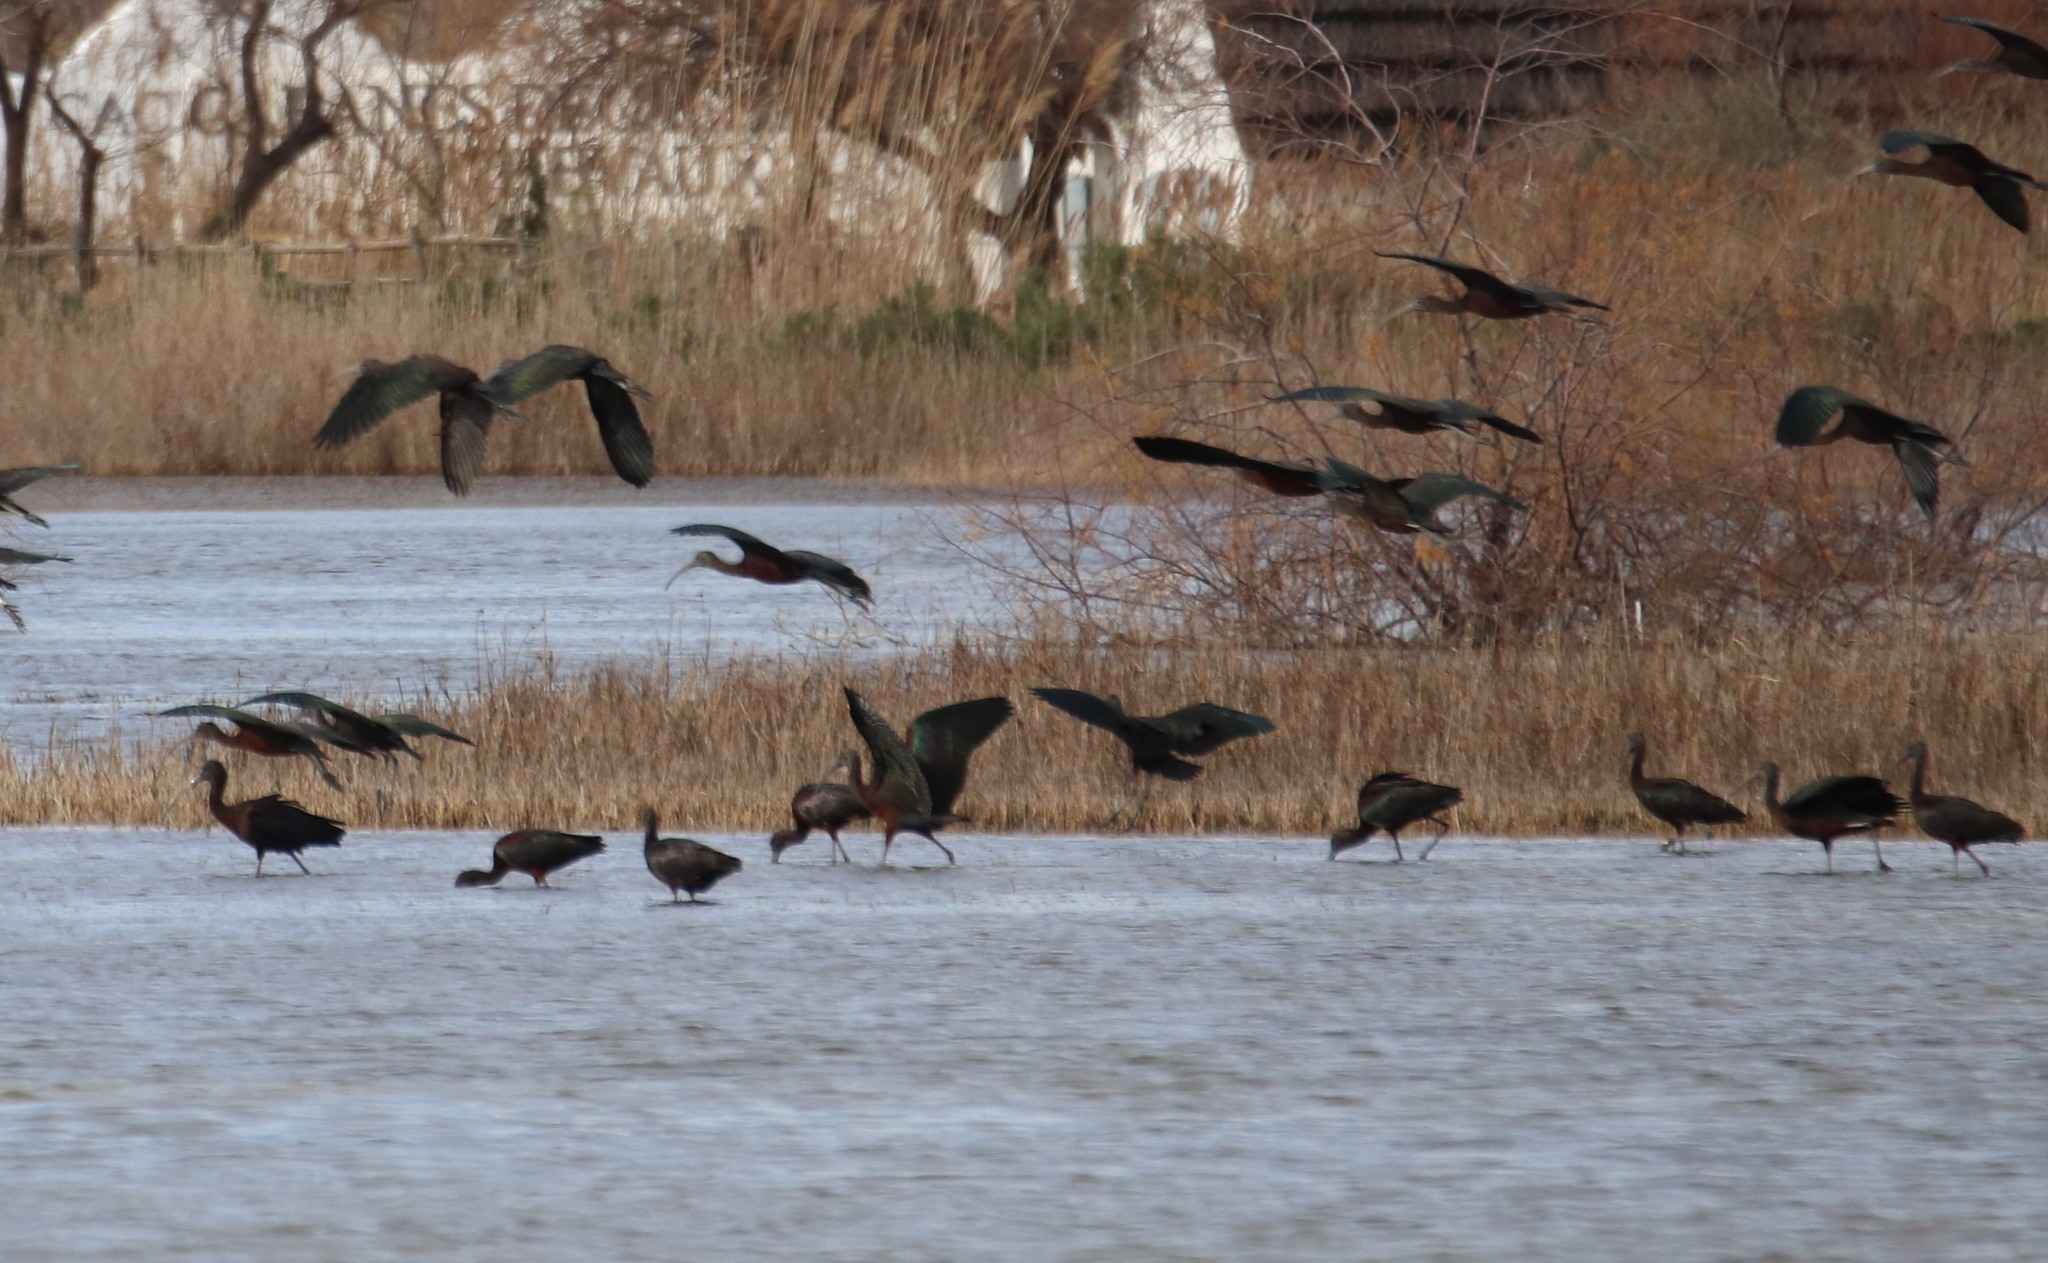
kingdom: Animalia
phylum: Chordata
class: Aves
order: Pelecaniformes
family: Threskiornithidae
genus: Plegadis
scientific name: Plegadis falcinellus
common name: Glossy ibis
